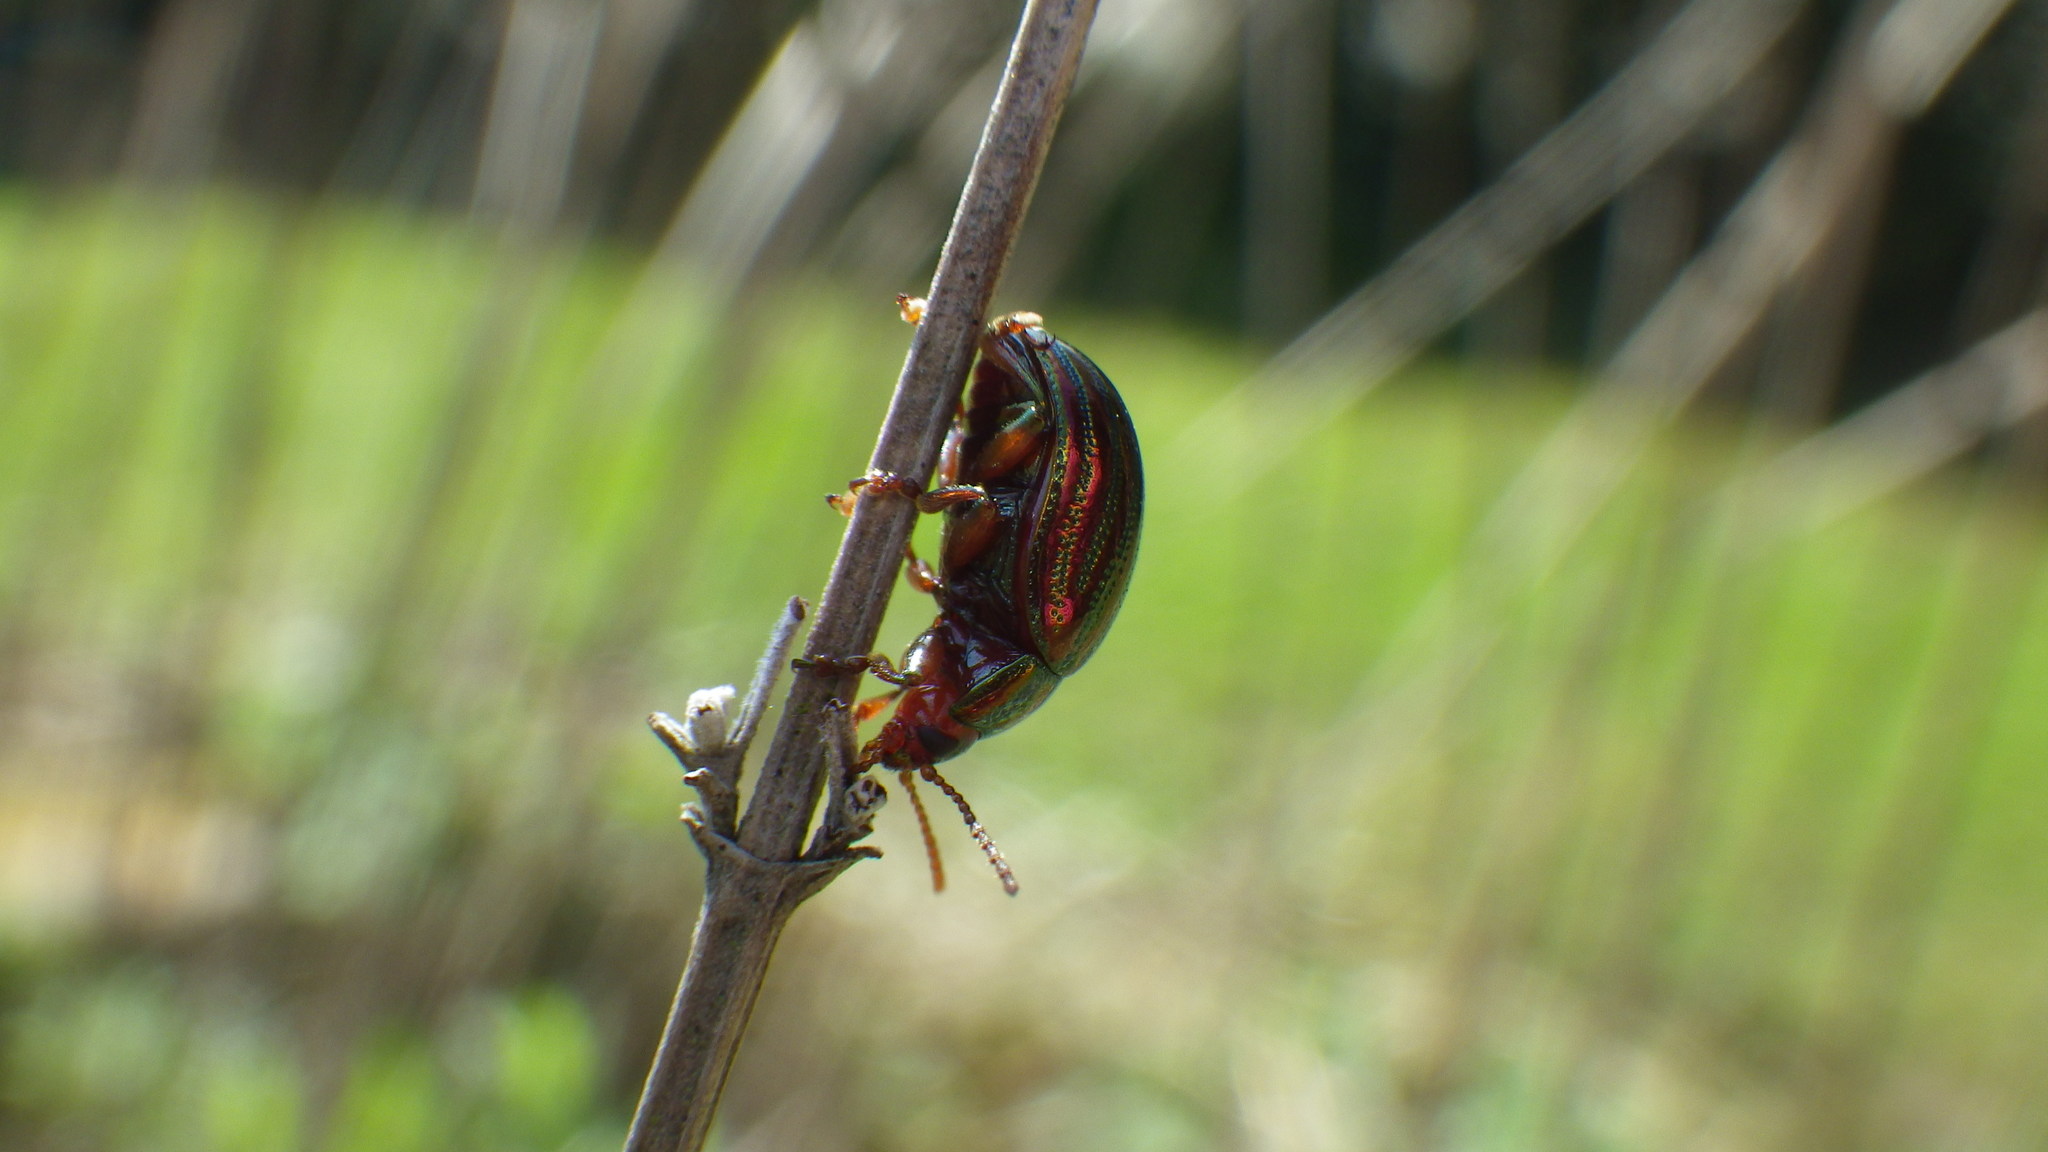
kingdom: Animalia
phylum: Arthropoda
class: Insecta
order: Coleoptera
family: Chrysomelidae
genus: Chrysolina
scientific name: Chrysolina americana
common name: Rosemary beetle
